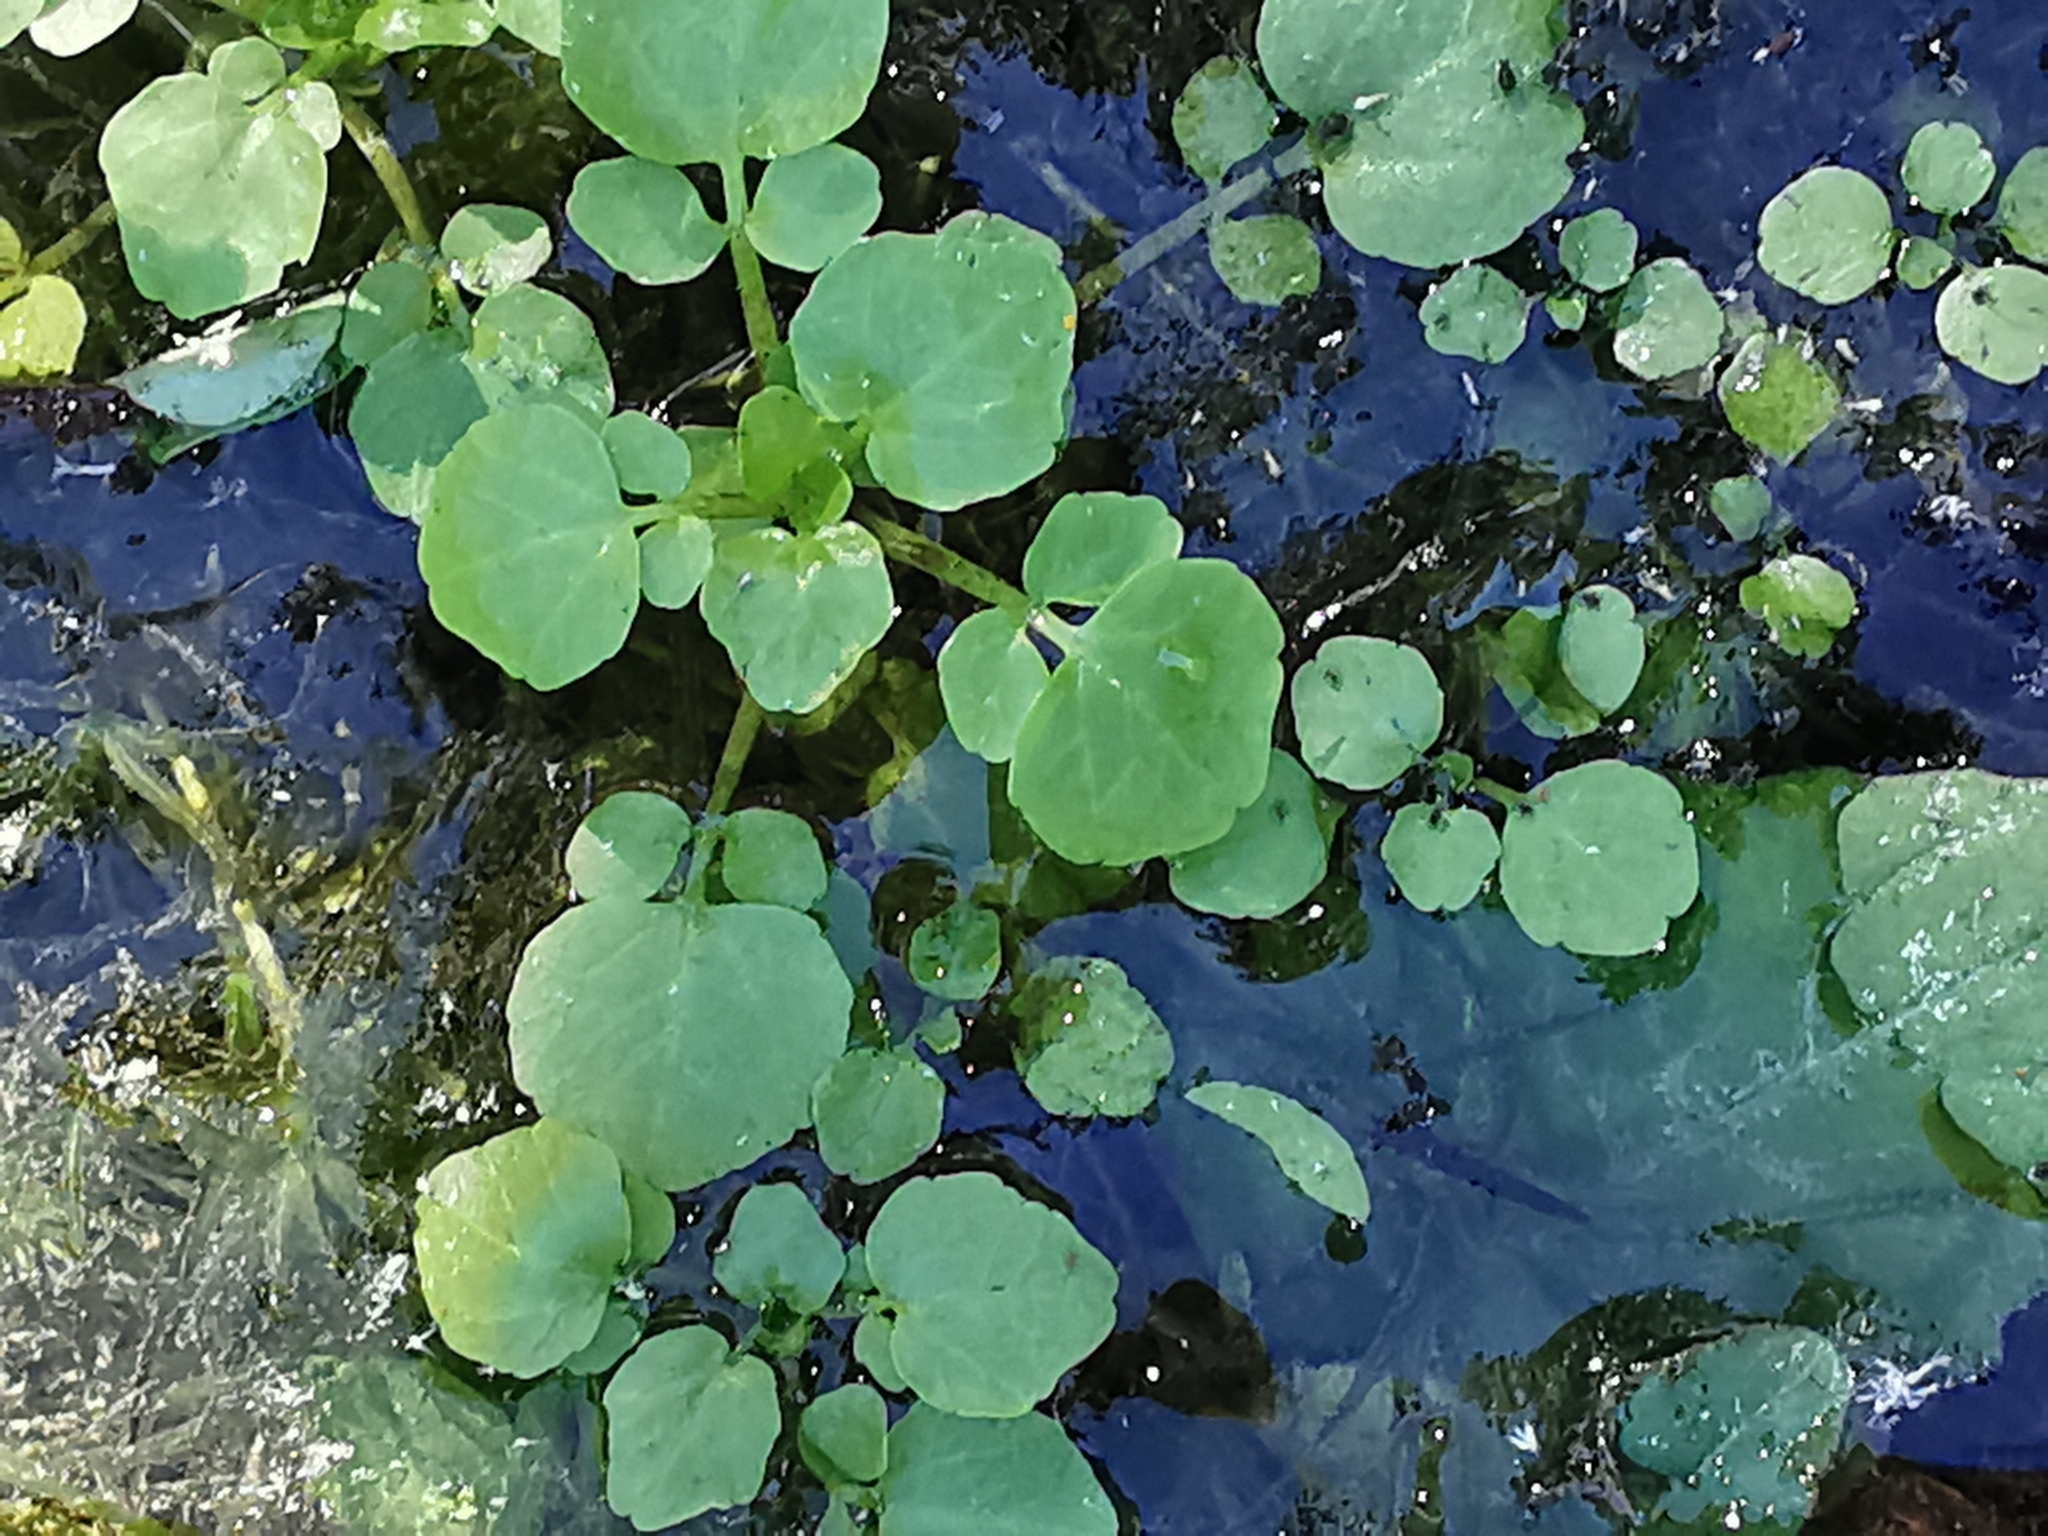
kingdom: Plantae
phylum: Tracheophyta
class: Magnoliopsida
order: Brassicales
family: Brassicaceae
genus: Nasturtium
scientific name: Nasturtium officinale
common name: Watercress
